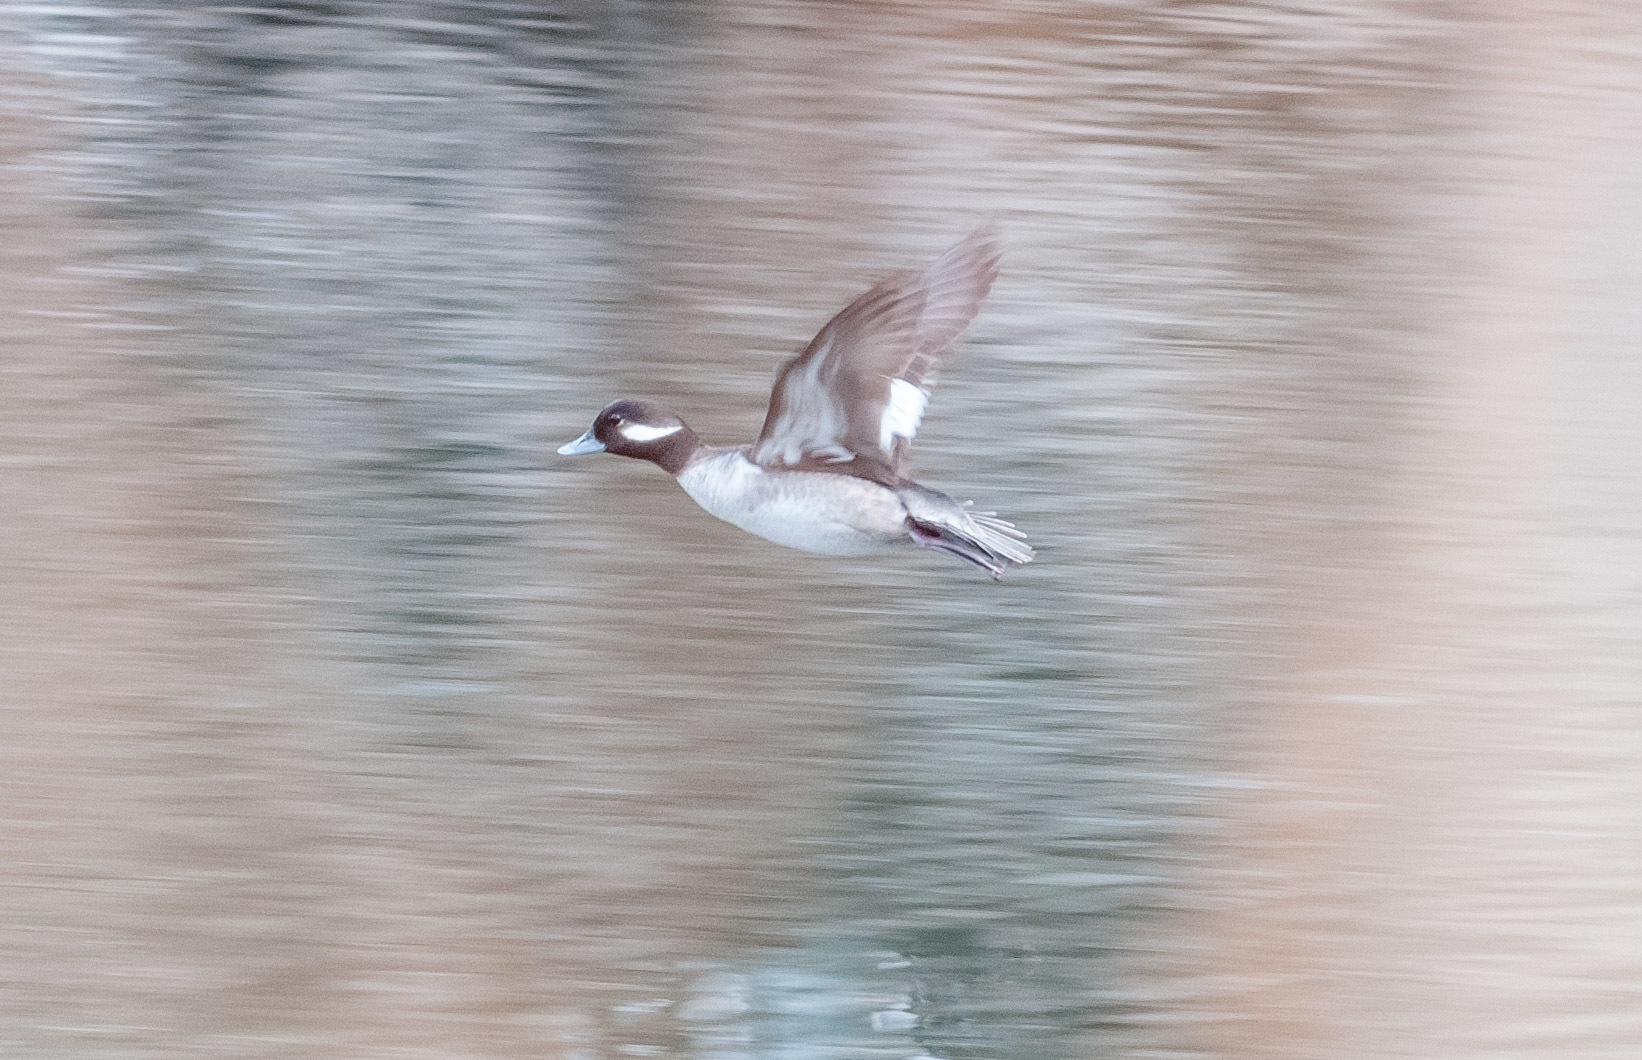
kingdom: Animalia
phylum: Chordata
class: Aves
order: Anseriformes
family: Anatidae
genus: Bucephala
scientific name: Bucephala albeola
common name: Bufflehead
